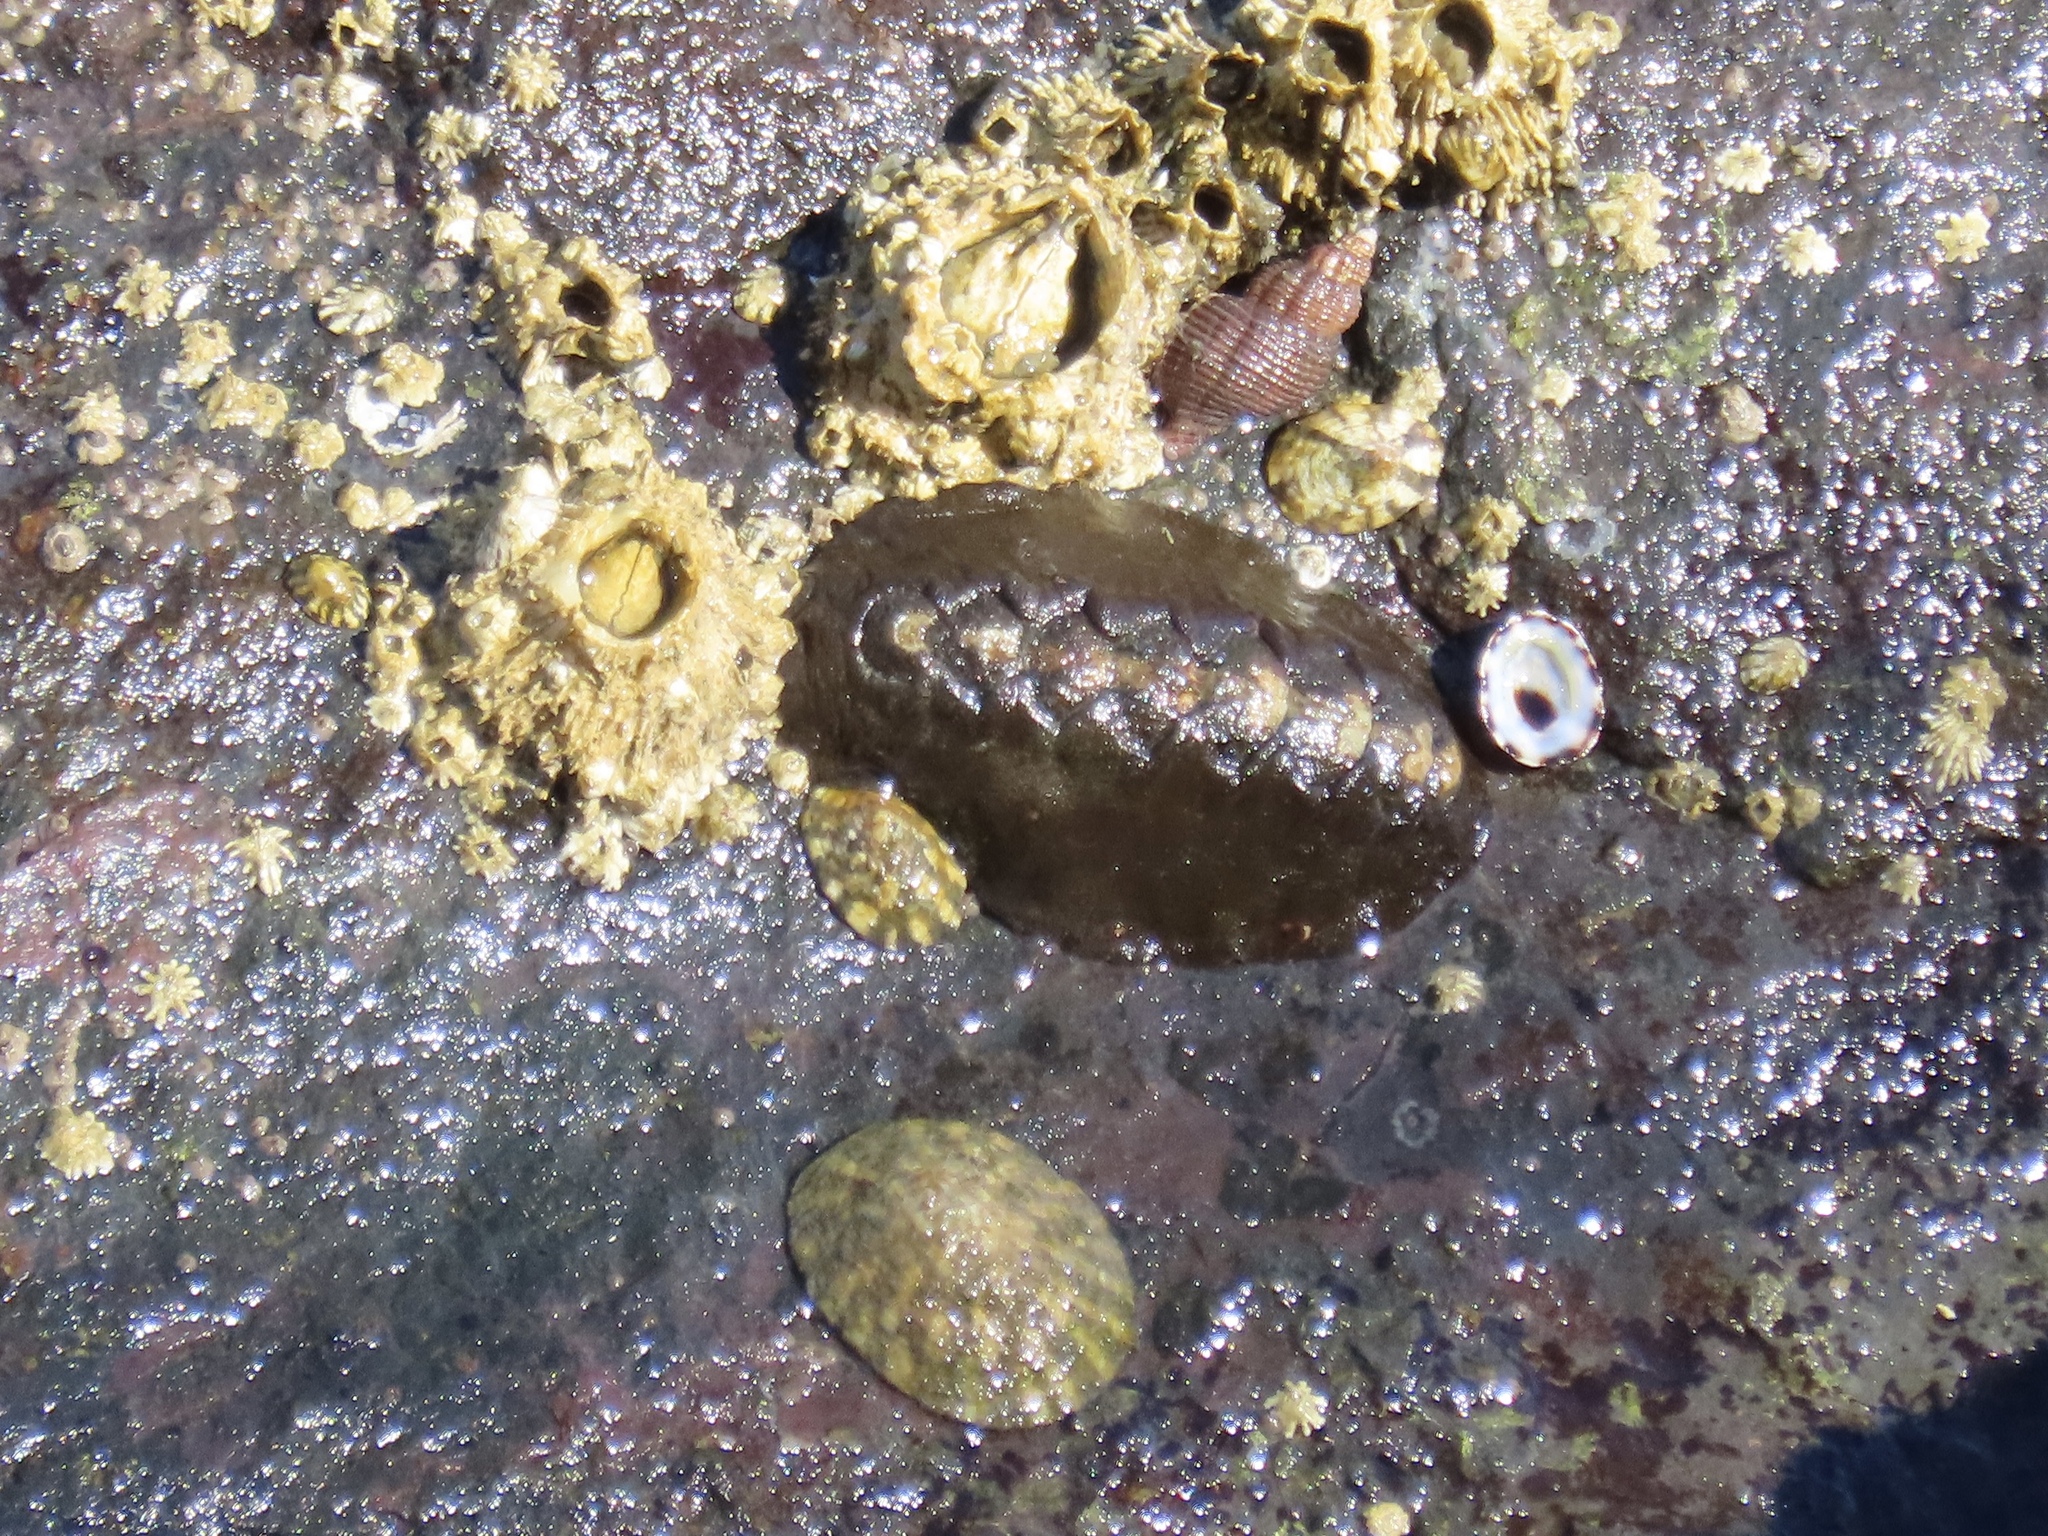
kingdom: Animalia
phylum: Mollusca
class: Polyplacophora
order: Chitonida
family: Mopaliidae
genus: Katharina
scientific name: Katharina tunicata
